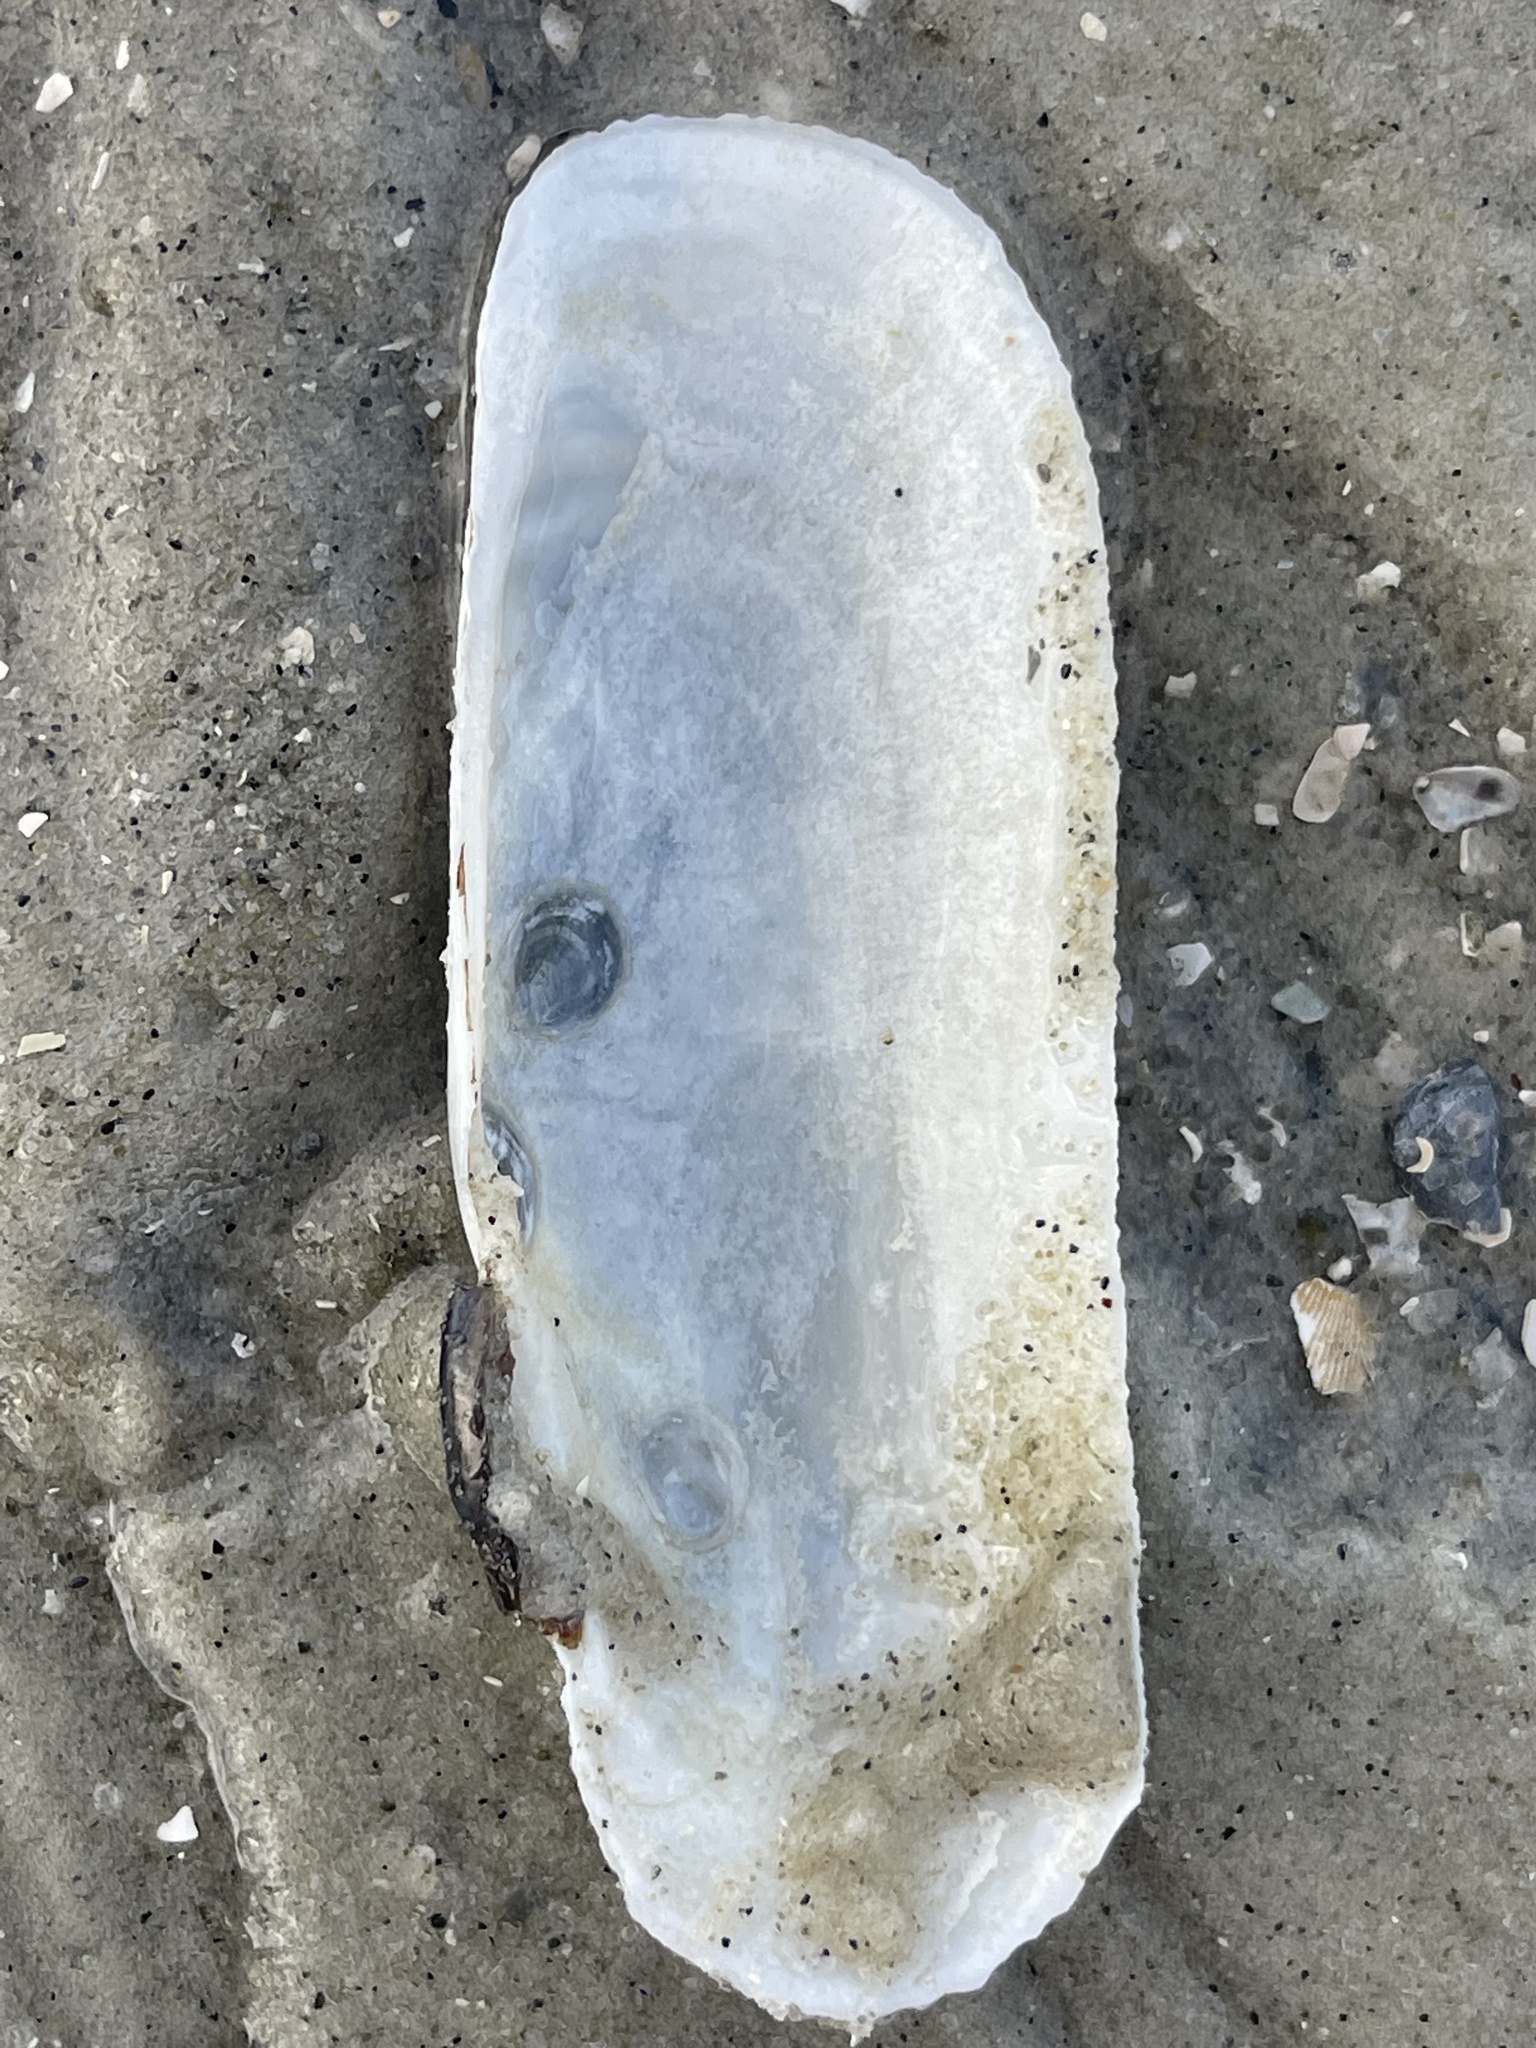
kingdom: Animalia
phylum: Mollusca
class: Bivalvia
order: Cardiida
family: Solecurtidae
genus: Tagelus
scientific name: Tagelus plebeius
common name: Stout tagelus
